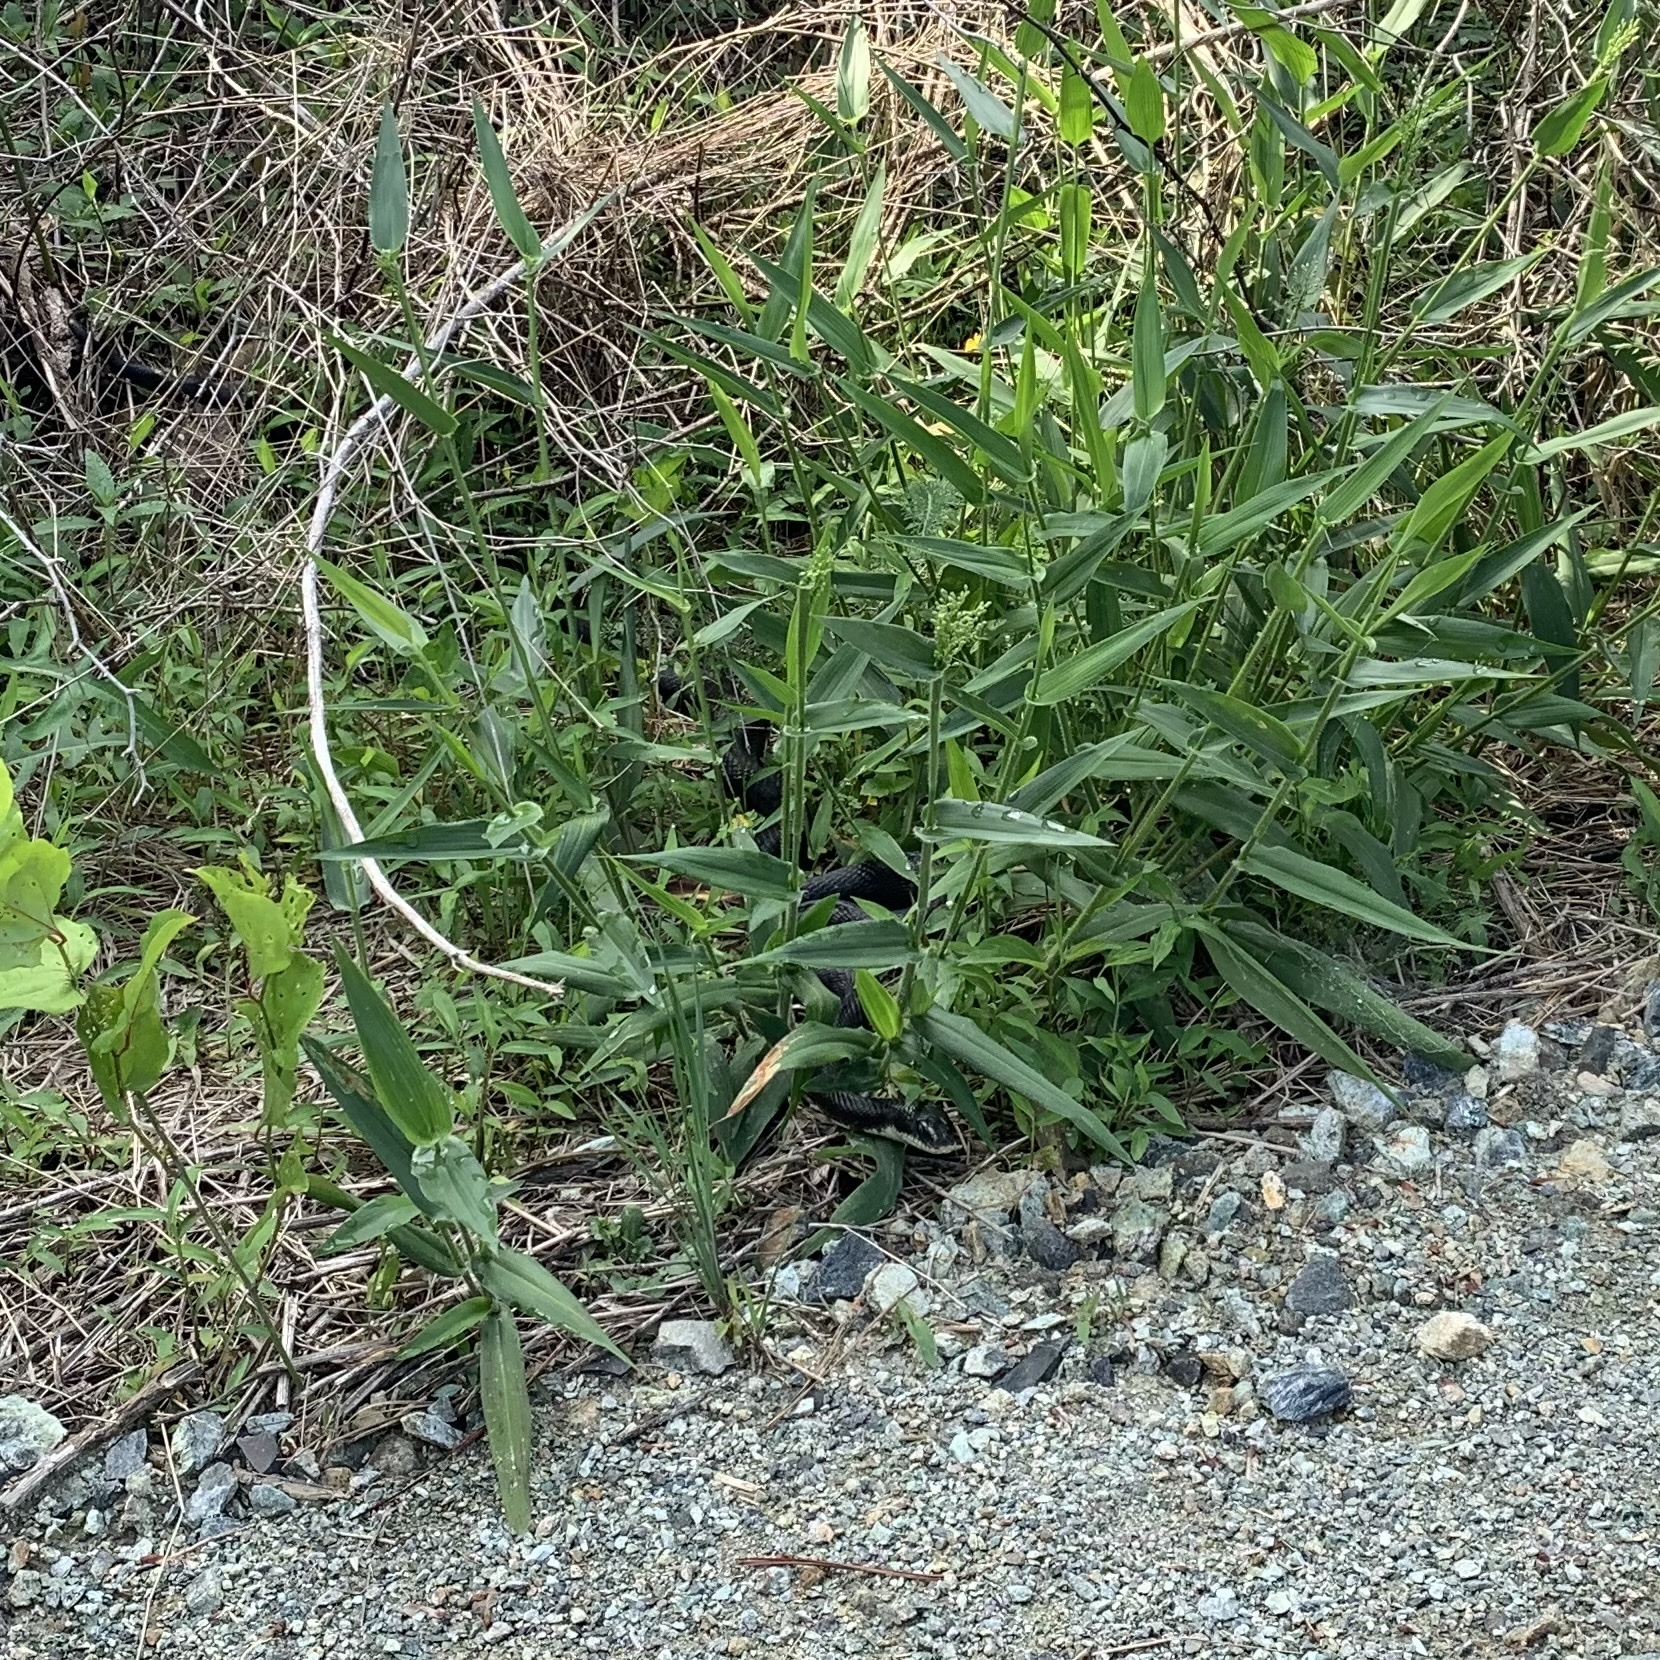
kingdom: Animalia
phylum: Chordata
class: Squamata
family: Colubridae
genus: Pantherophis
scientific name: Pantherophis alleghaniensis
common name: Eastern rat snake
